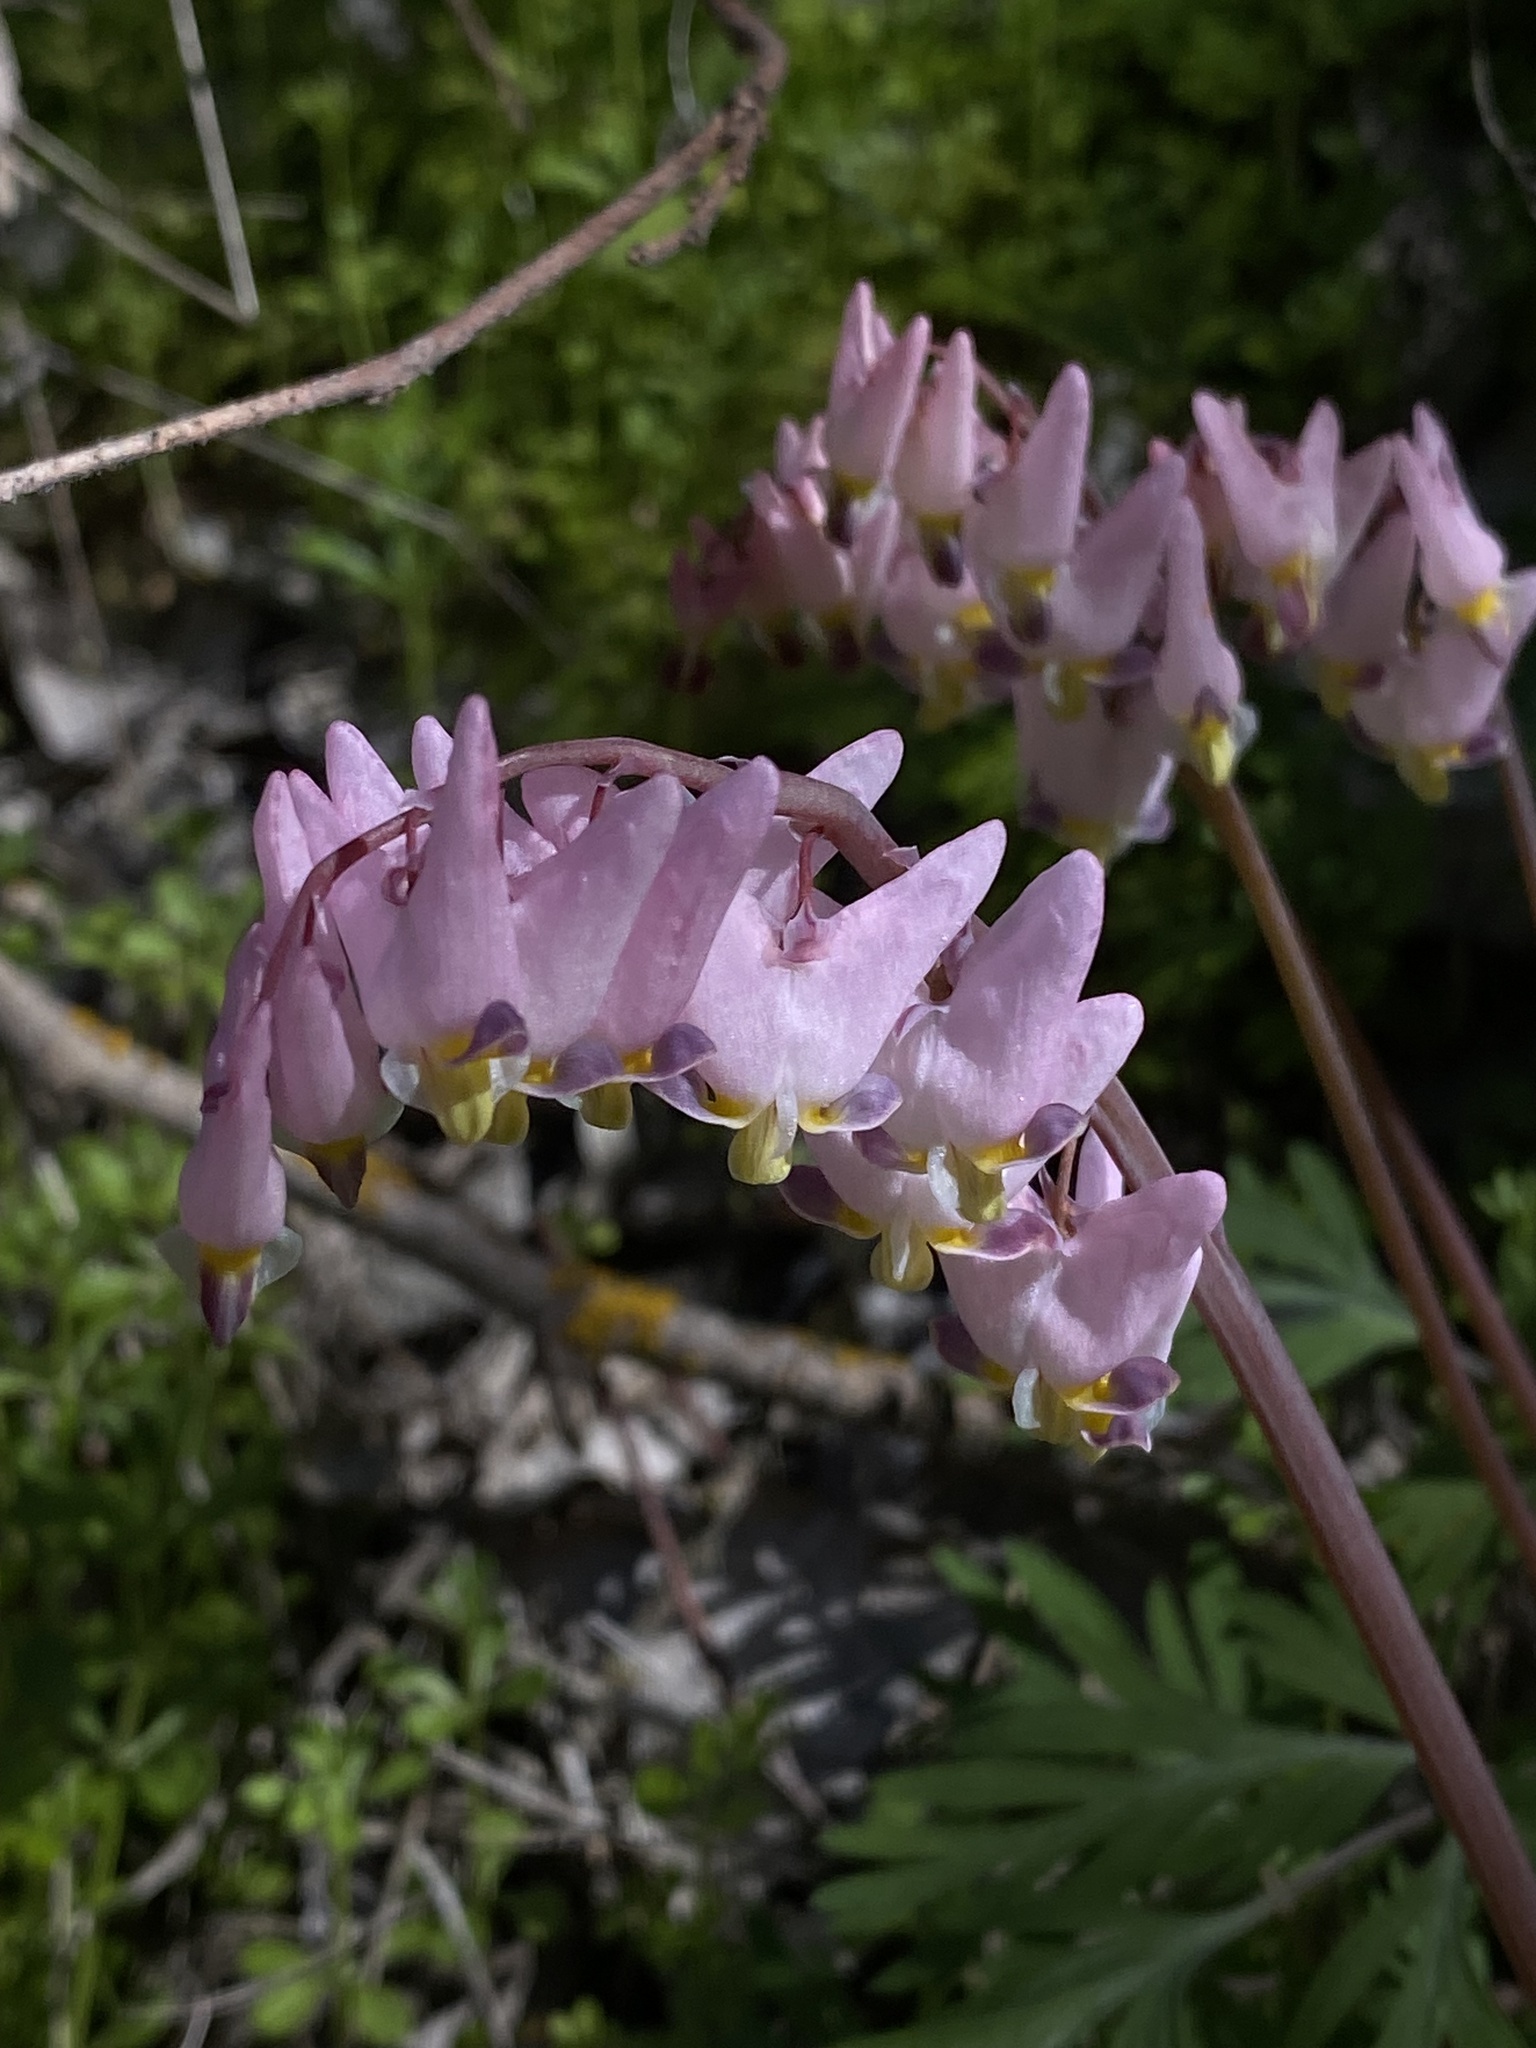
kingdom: Plantae
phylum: Tracheophyta
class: Magnoliopsida
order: Ranunculales
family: Papaveraceae
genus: Dicentra
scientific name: Dicentra cucullaria
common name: Dutchman's breeches
